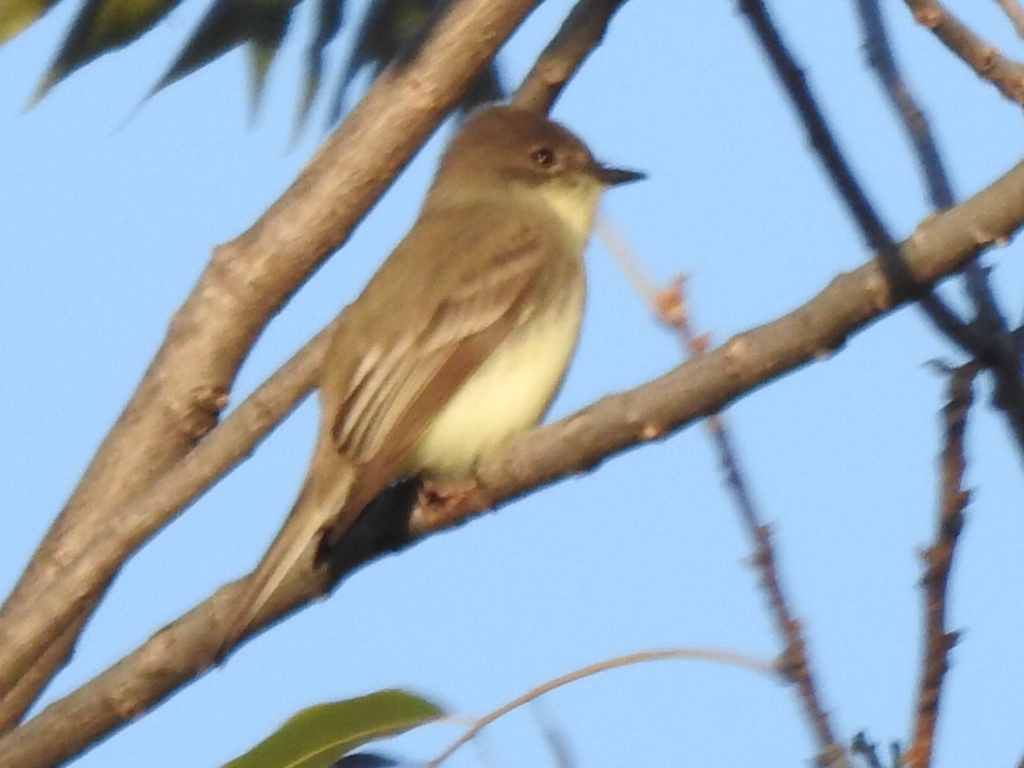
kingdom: Animalia
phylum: Chordata
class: Aves
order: Passeriformes
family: Tyrannidae
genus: Sayornis
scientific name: Sayornis phoebe
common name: Eastern phoebe
